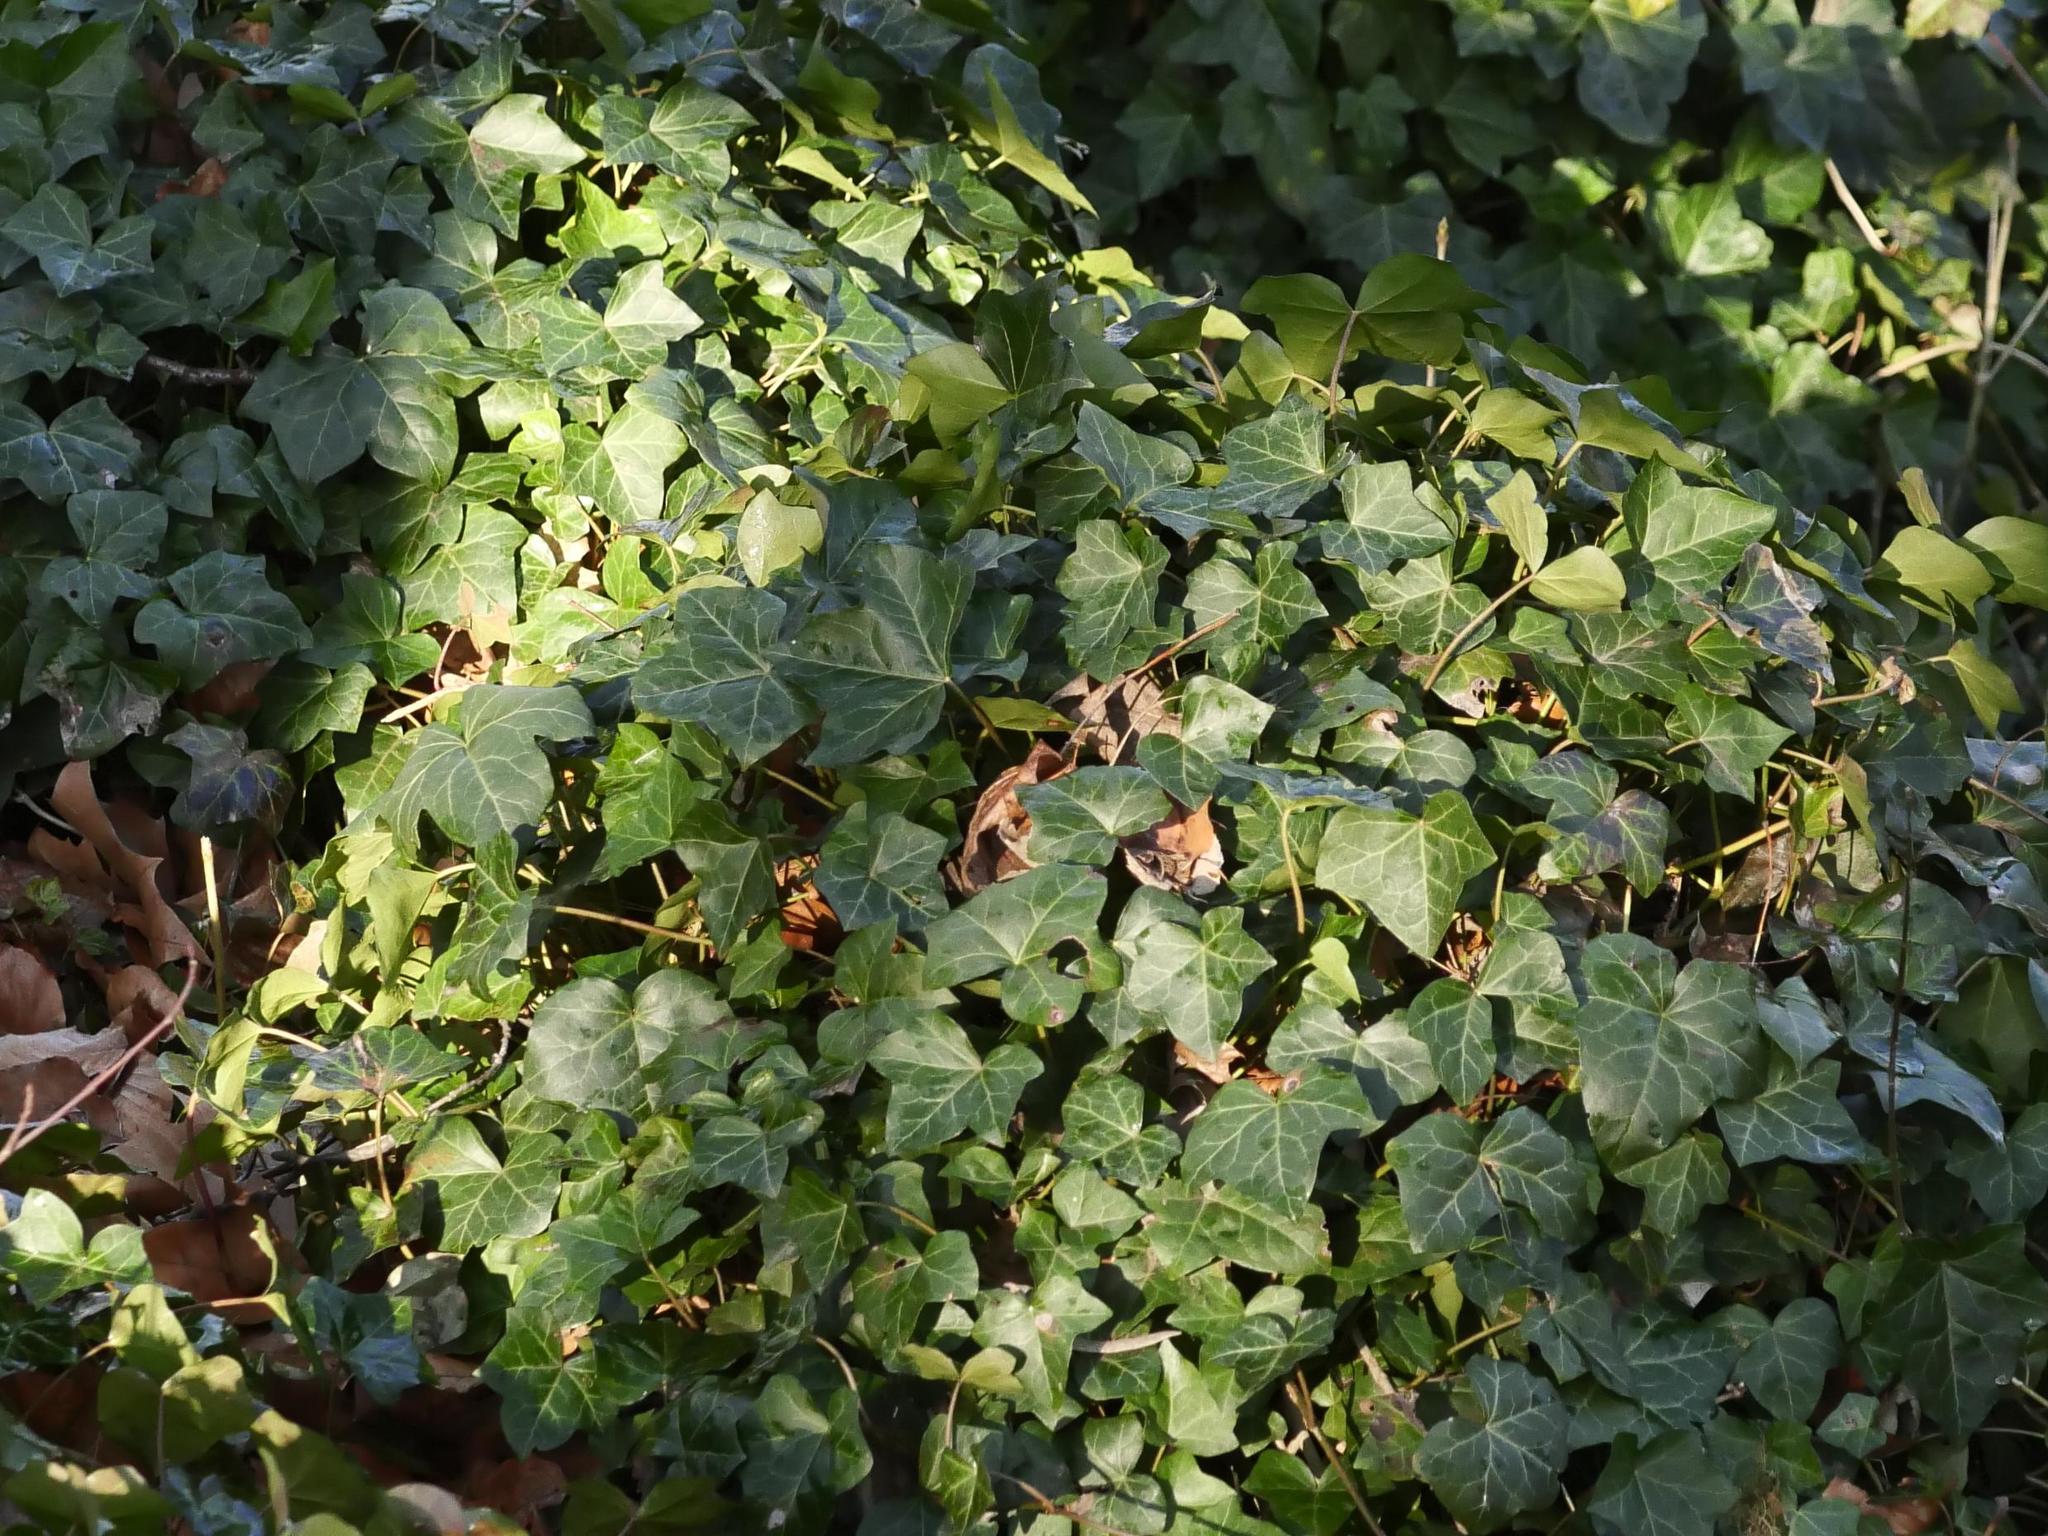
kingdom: Plantae
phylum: Tracheophyta
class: Magnoliopsida
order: Apiales
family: Araliaceae
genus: Hedera
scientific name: Hedera helix
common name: Ivy
